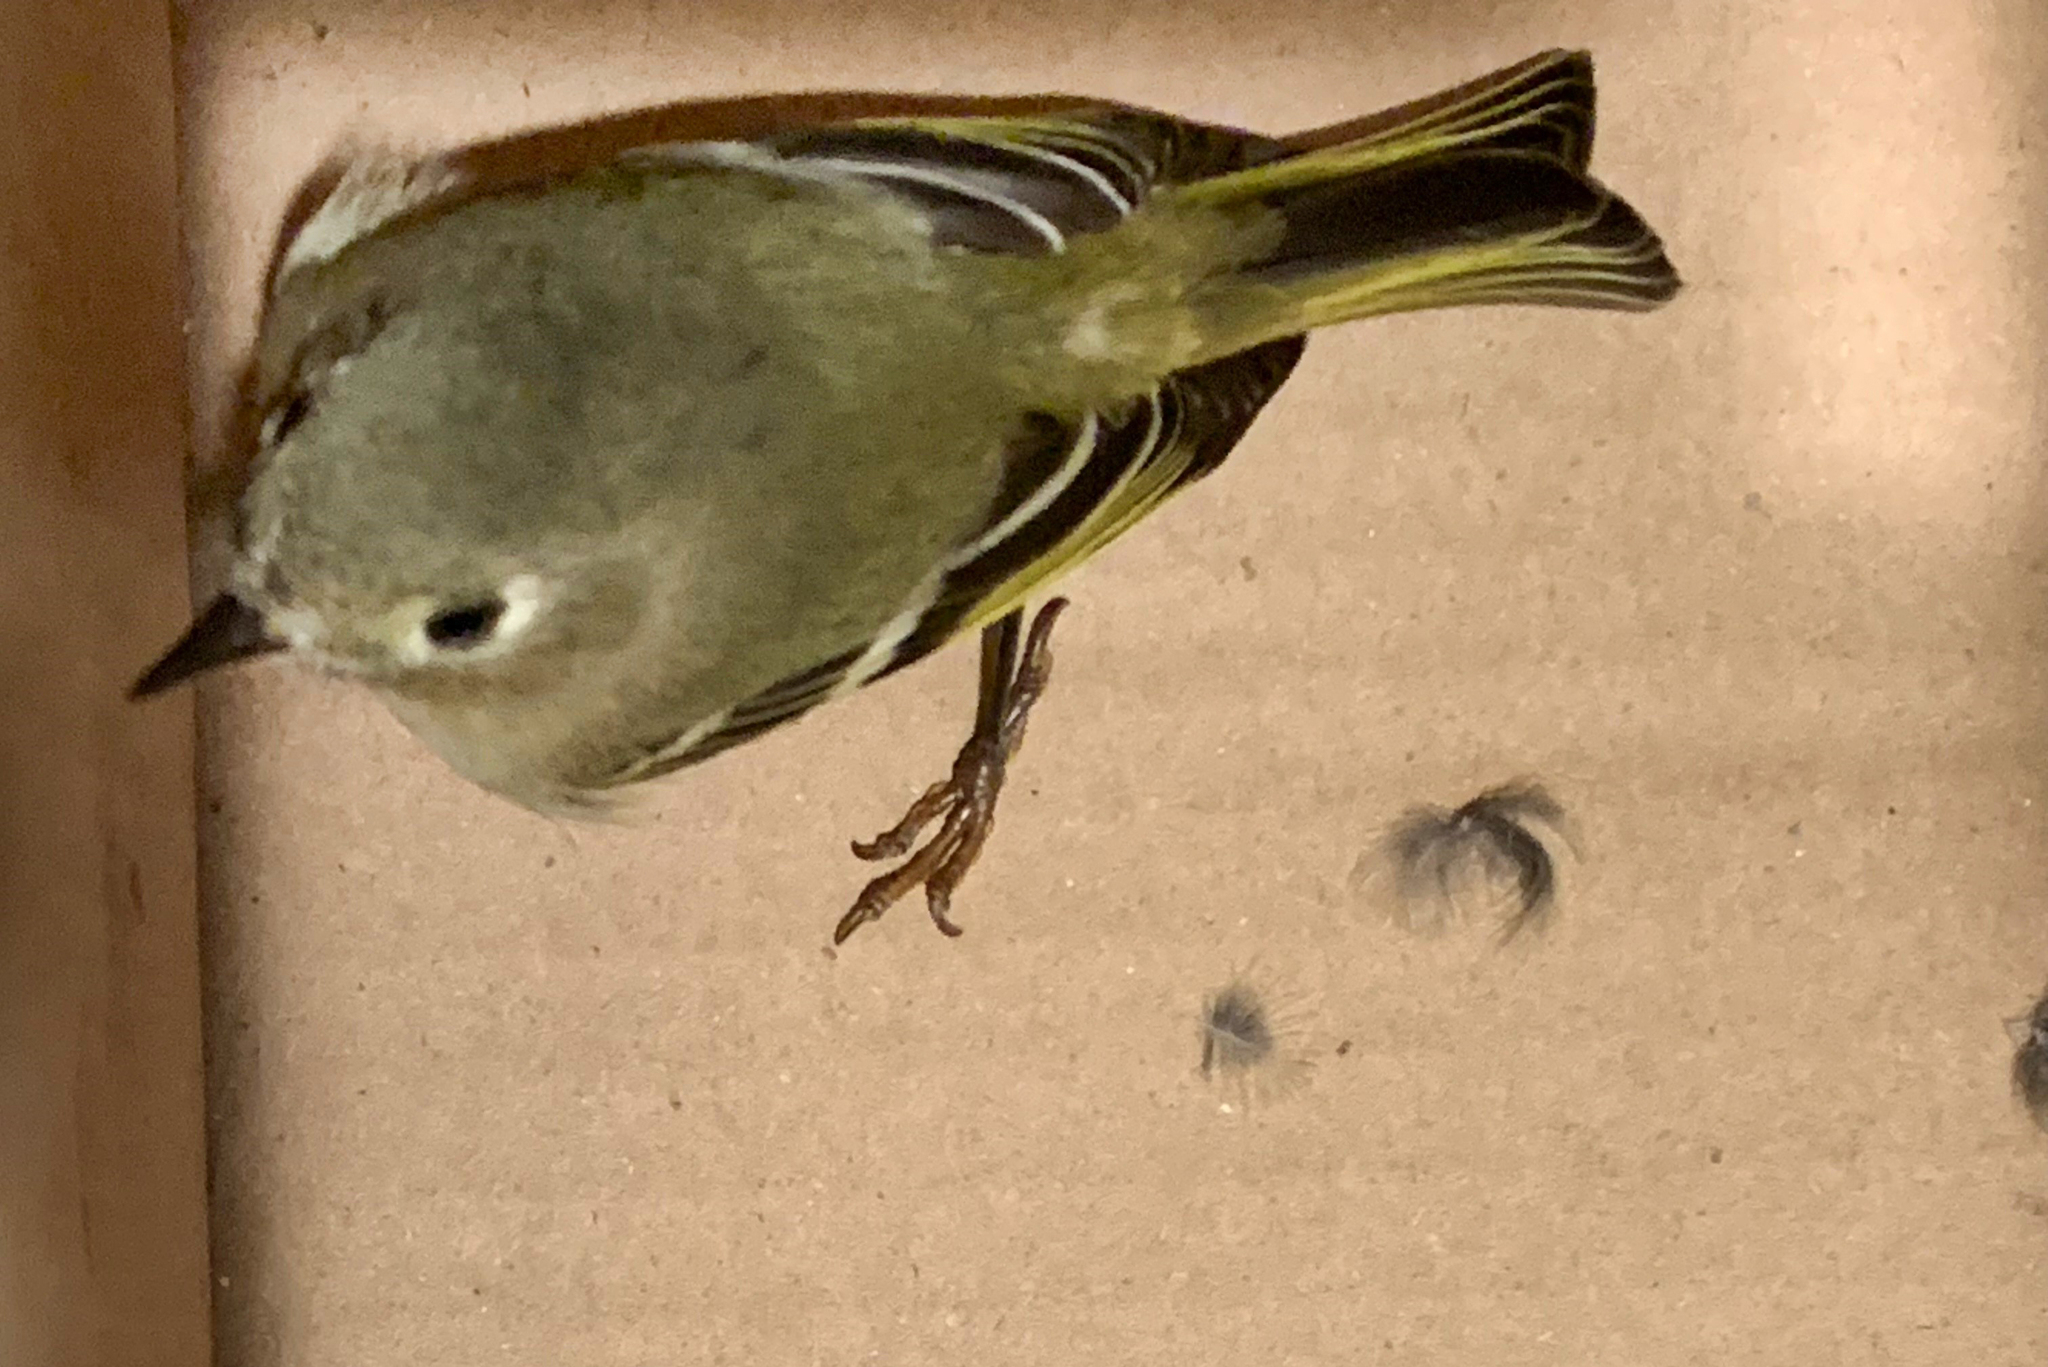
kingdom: Animalia
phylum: Chordata
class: Aves
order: Passeriformes
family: Regulidae
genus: Regulus
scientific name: Regulus calendula
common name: Ruby-crowned kinglet
